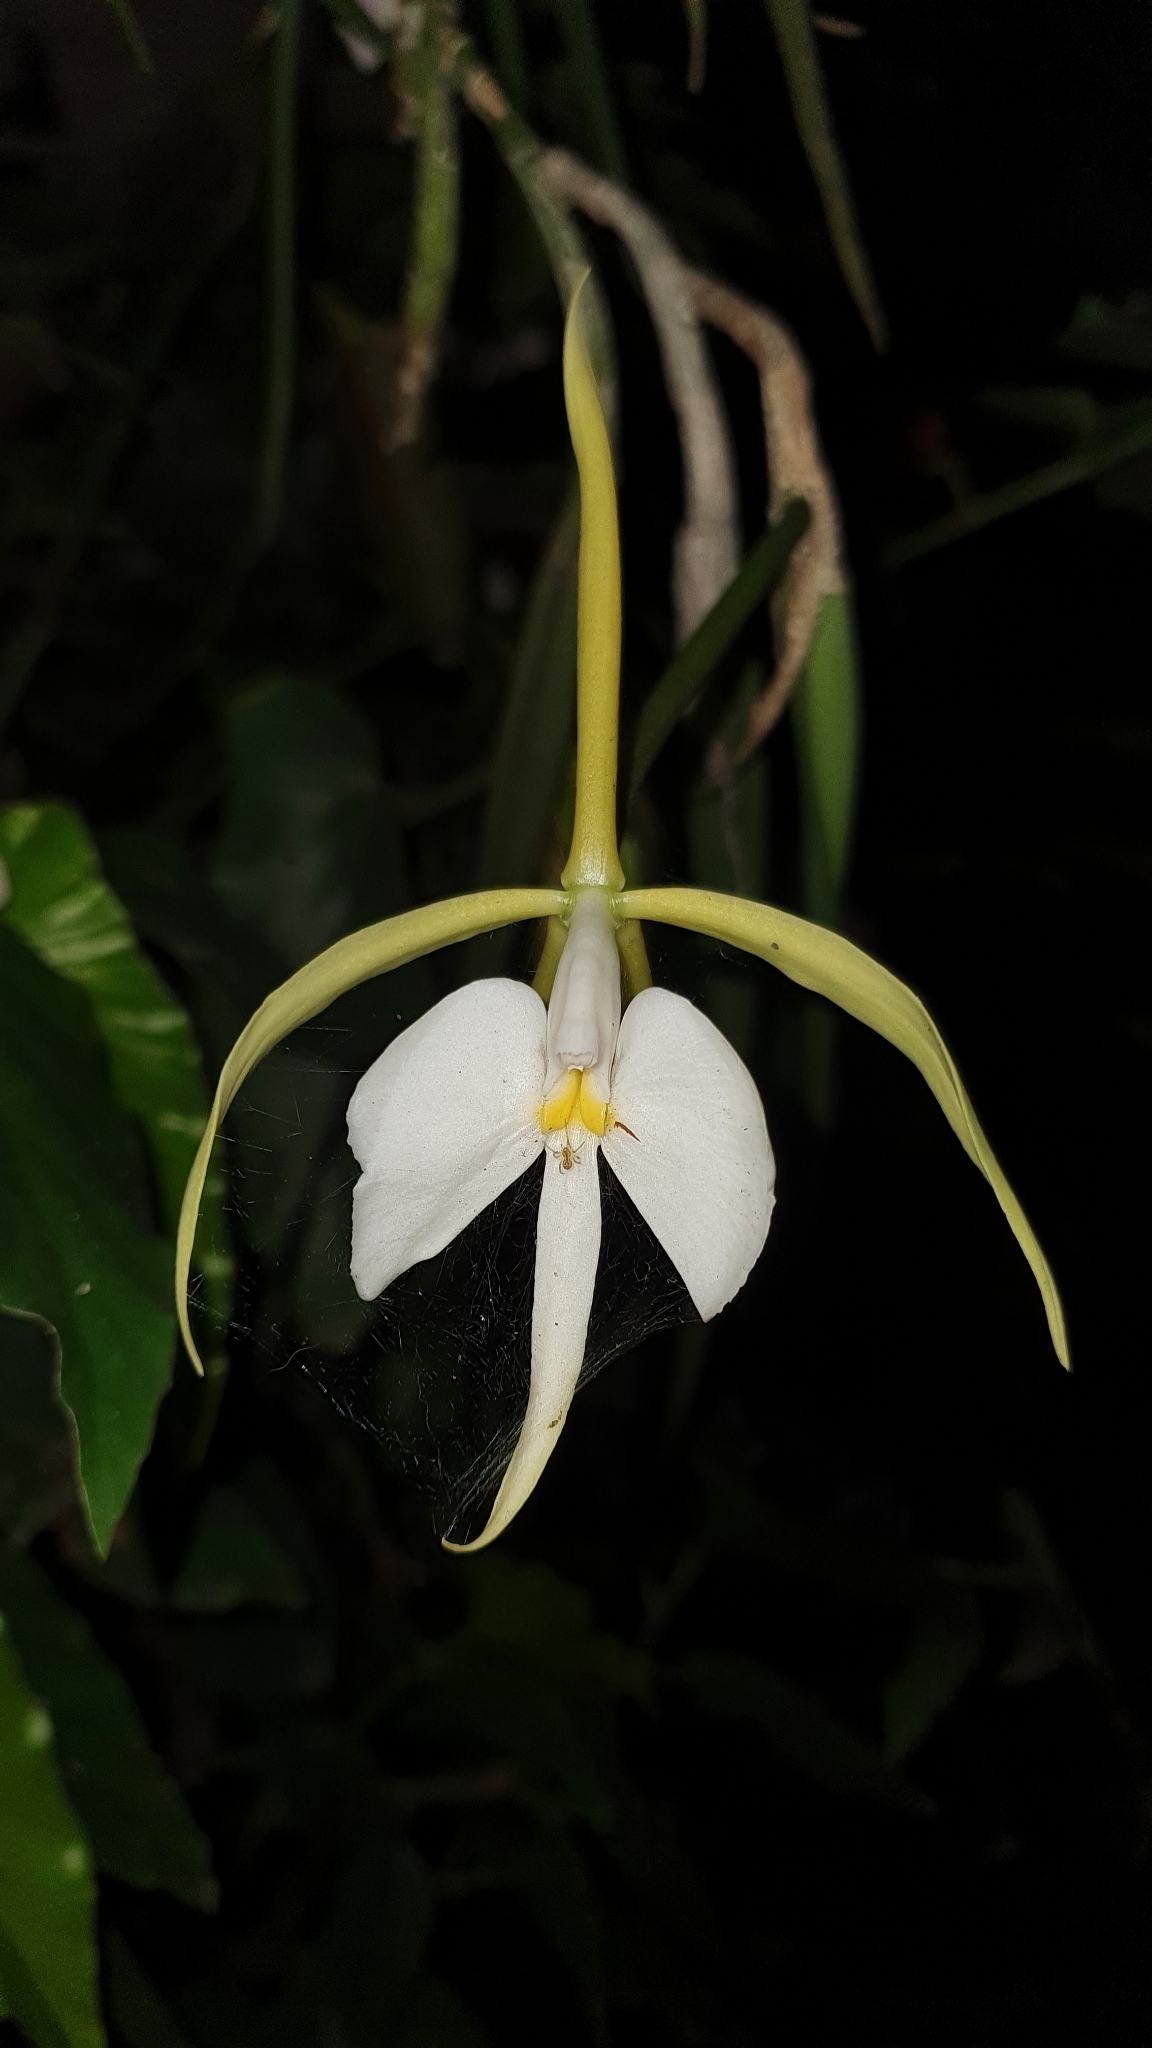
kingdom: Plantae
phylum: Tracheophyta
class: Liliopsida
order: Asparagales
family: Orchidaceae
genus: Epidendrum
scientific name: Epidendrum parkinsonianum
